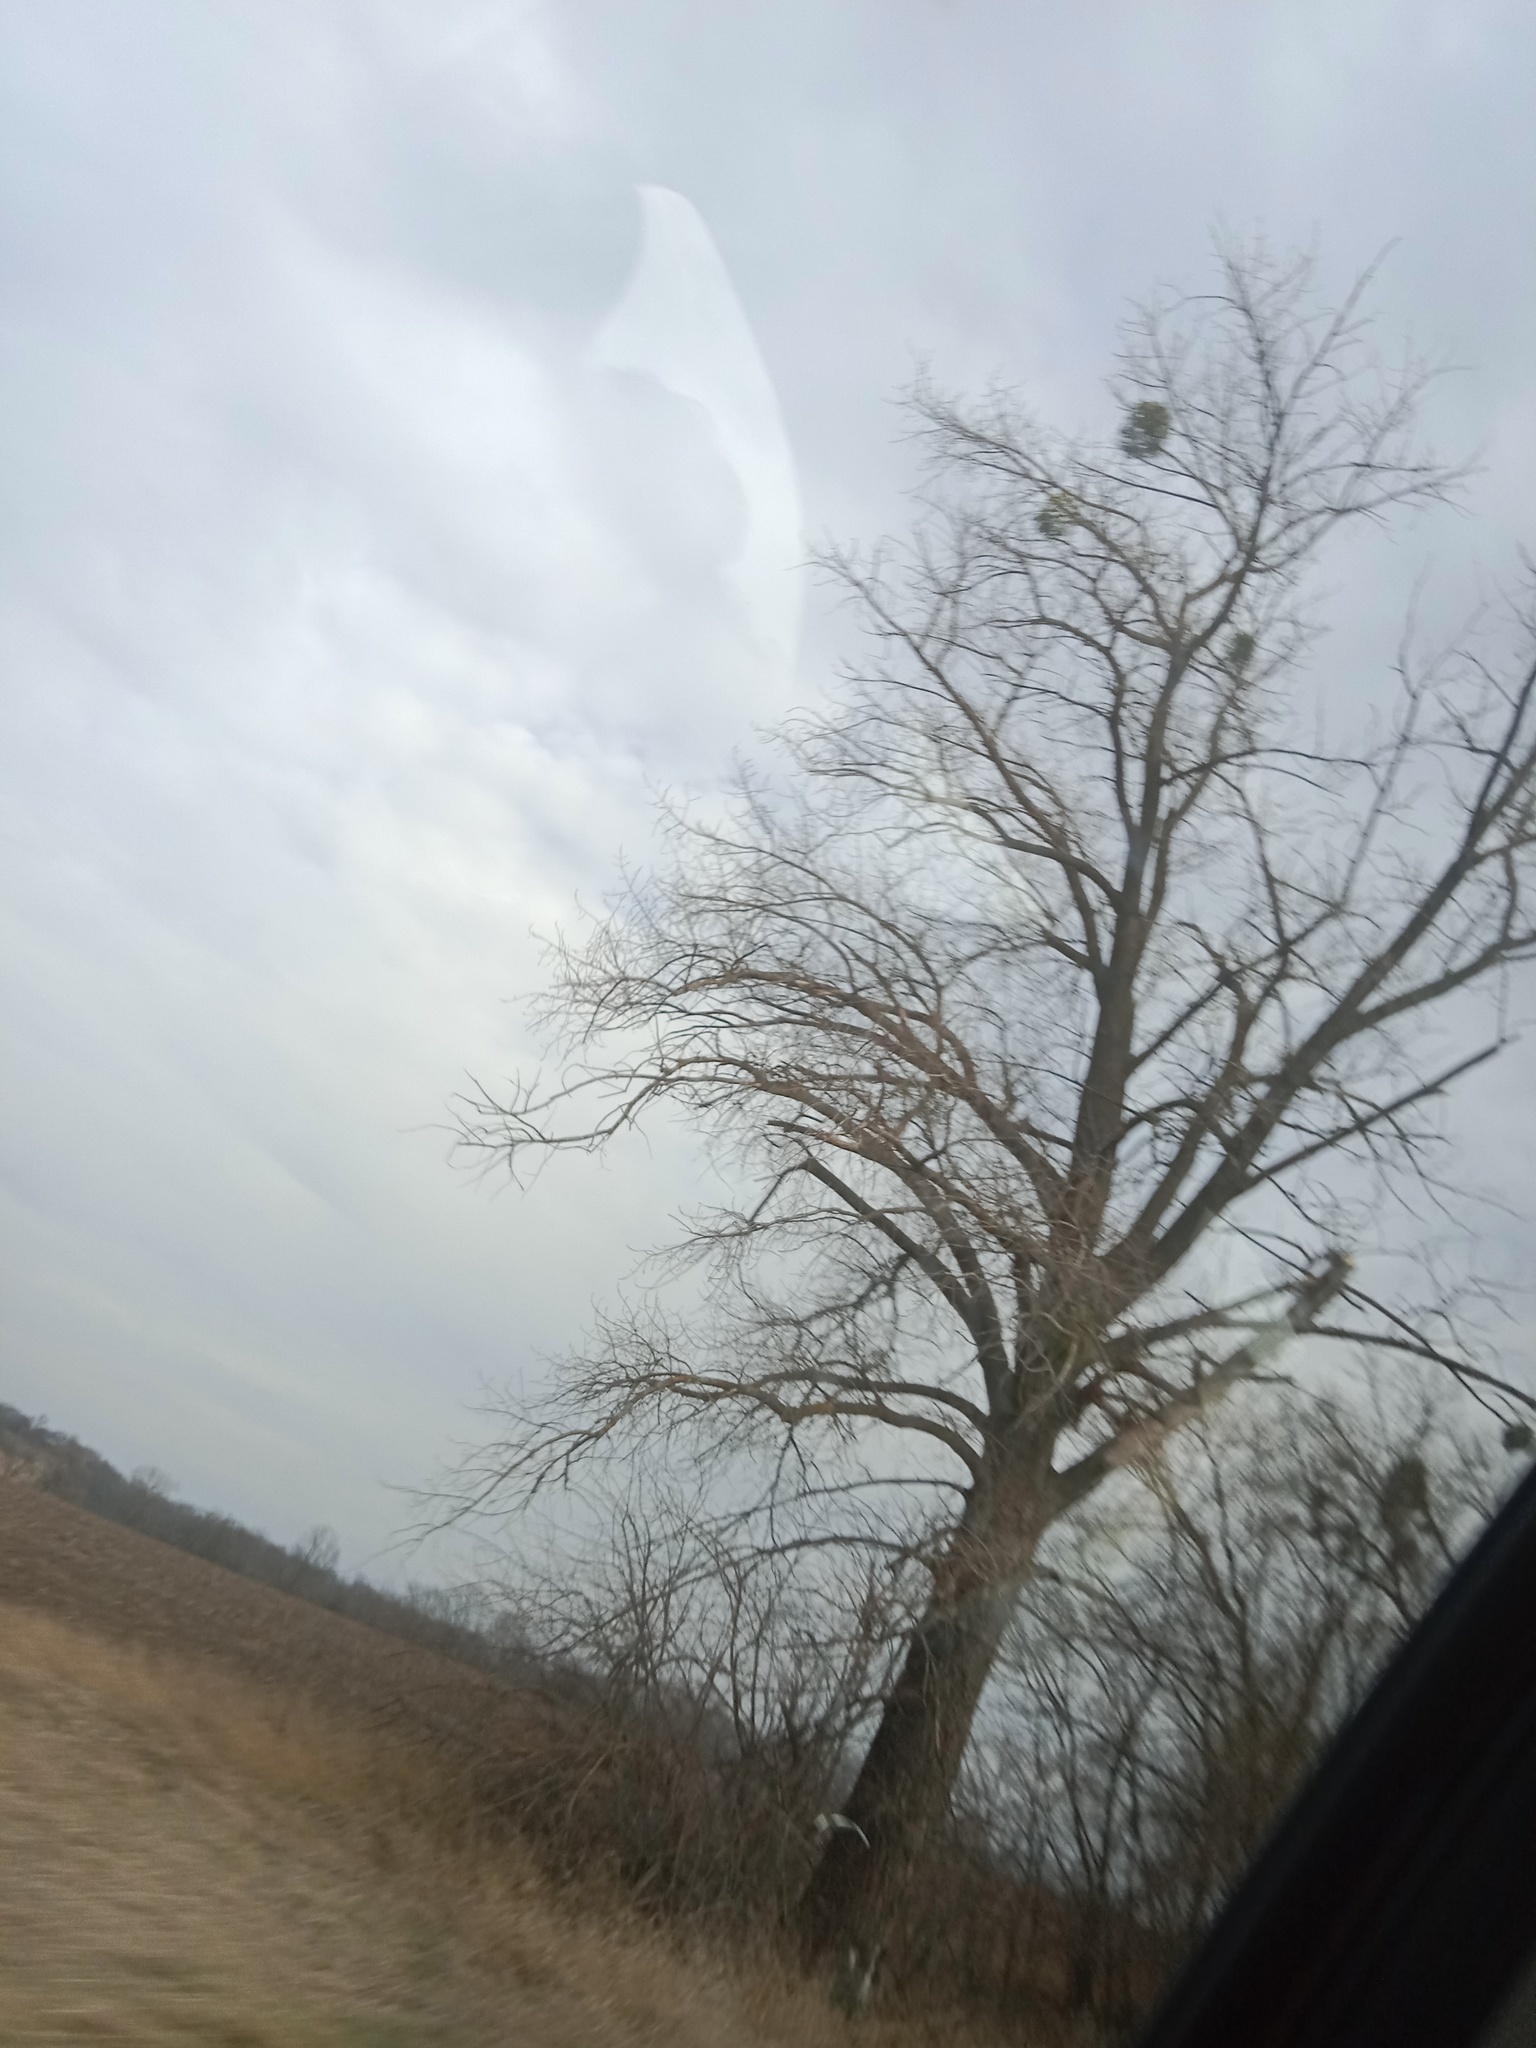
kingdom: Plantae
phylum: Tracheophyta
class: Magnoliopsida
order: Santalales
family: Viscaceae
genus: Viscum
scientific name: Viscum album
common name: Mistletoe
